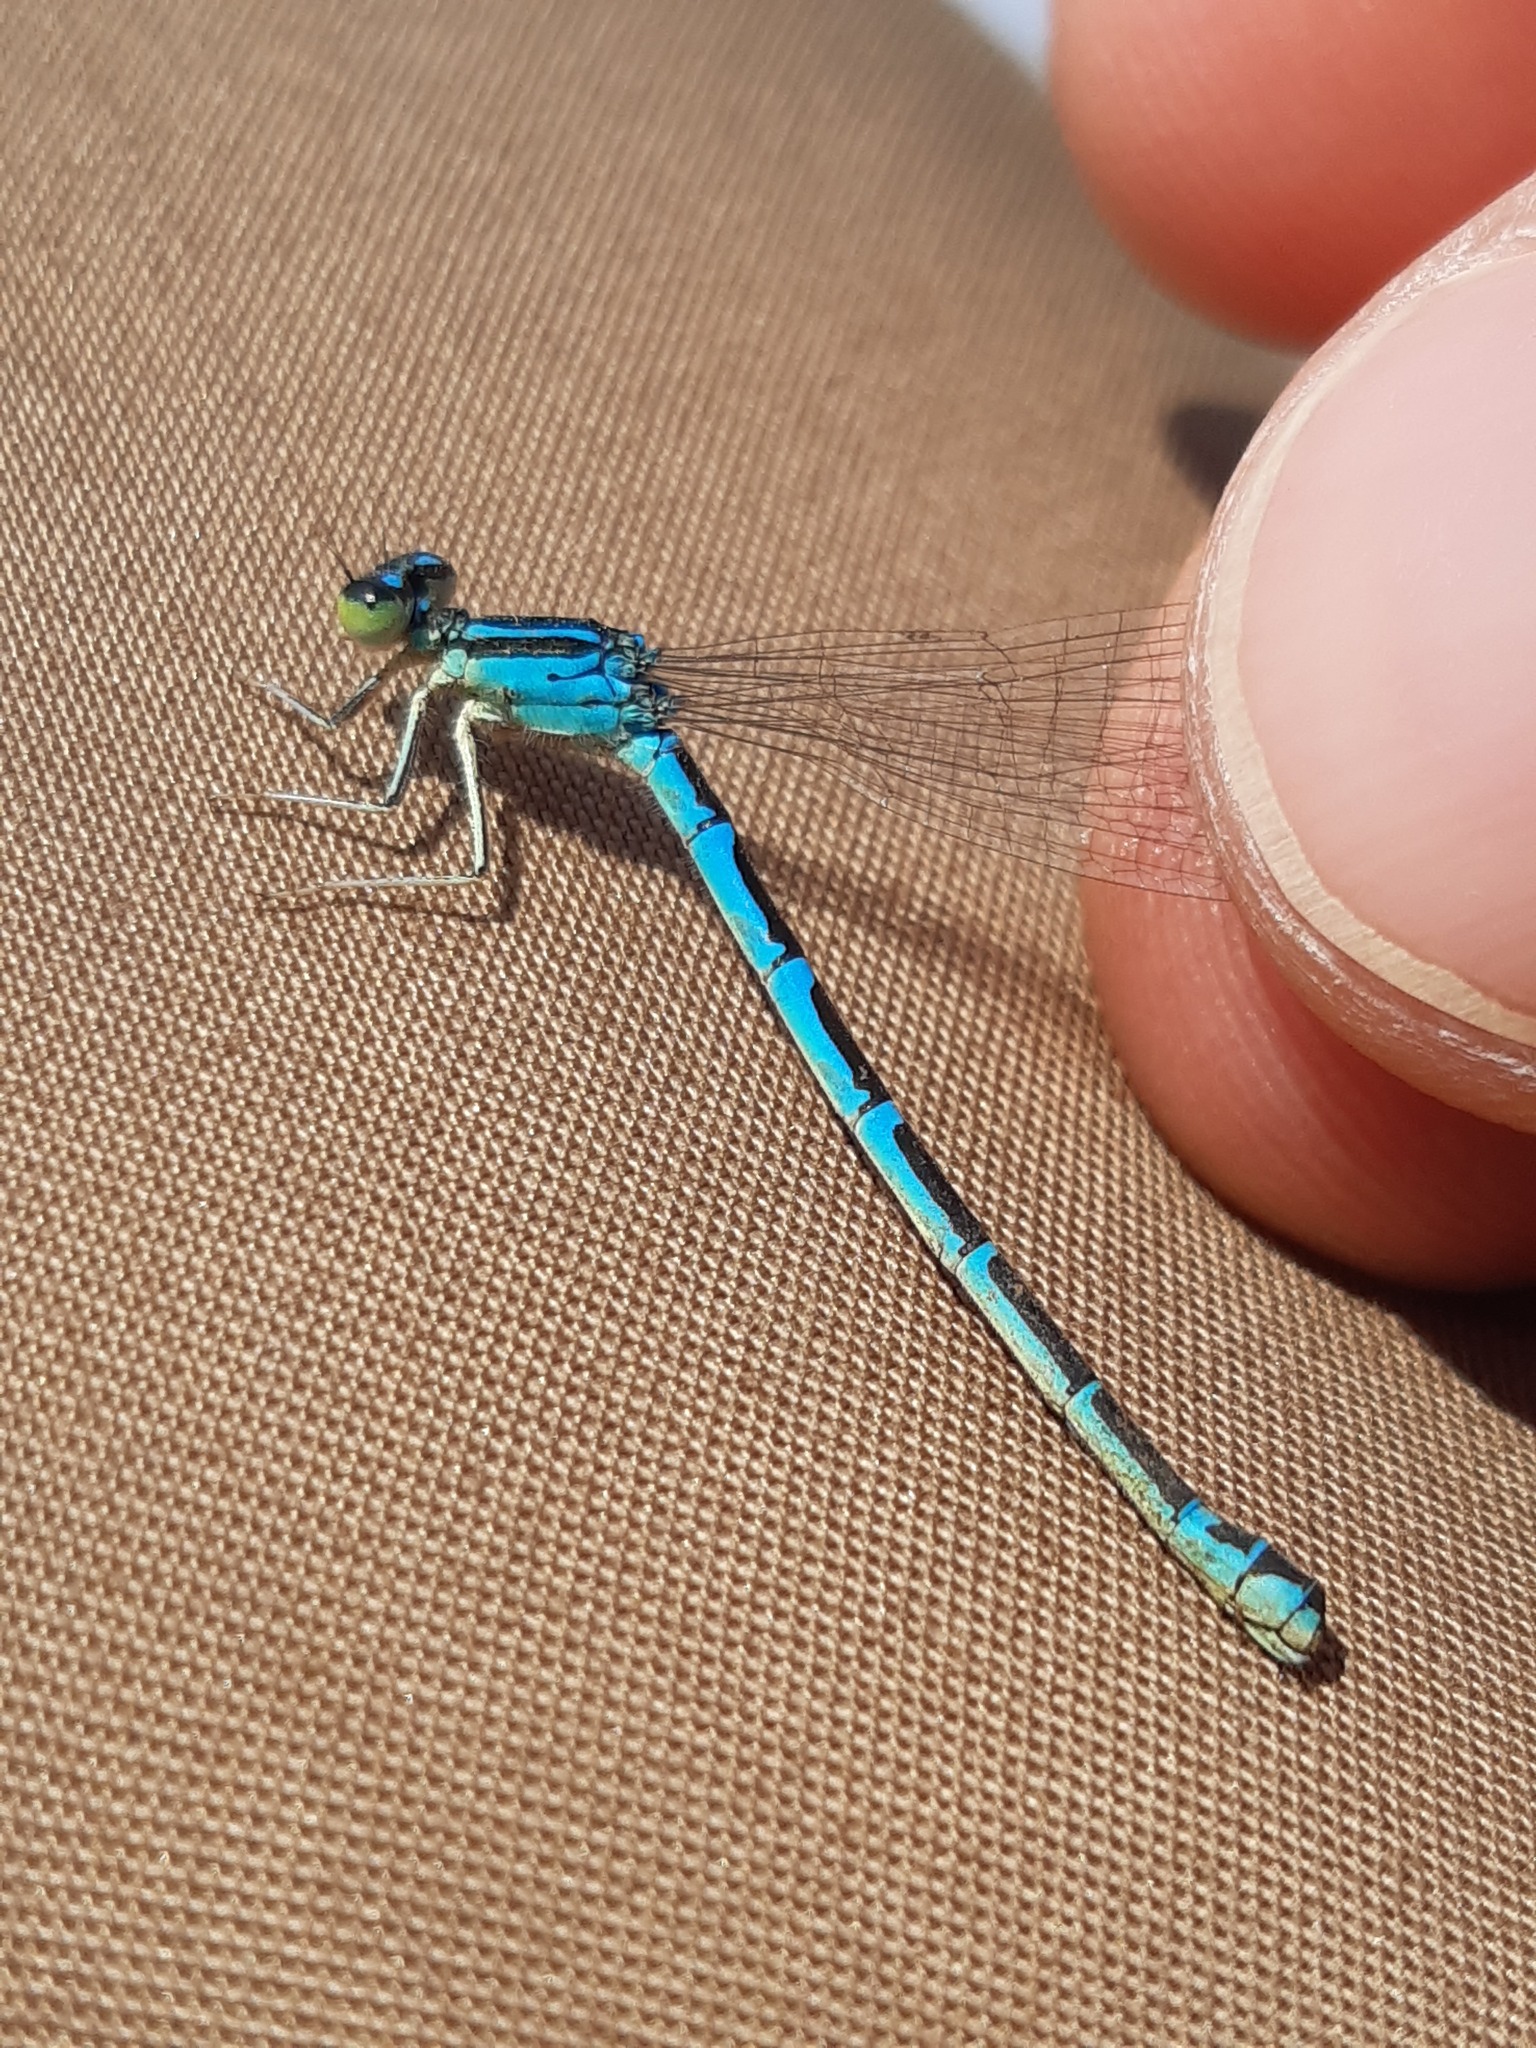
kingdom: Animalia
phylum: Arthropoda
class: Insecta
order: Odonata
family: Coenagrionidae
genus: Coenagrion
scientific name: Coenagrion scitulum
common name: Dainty bluet
